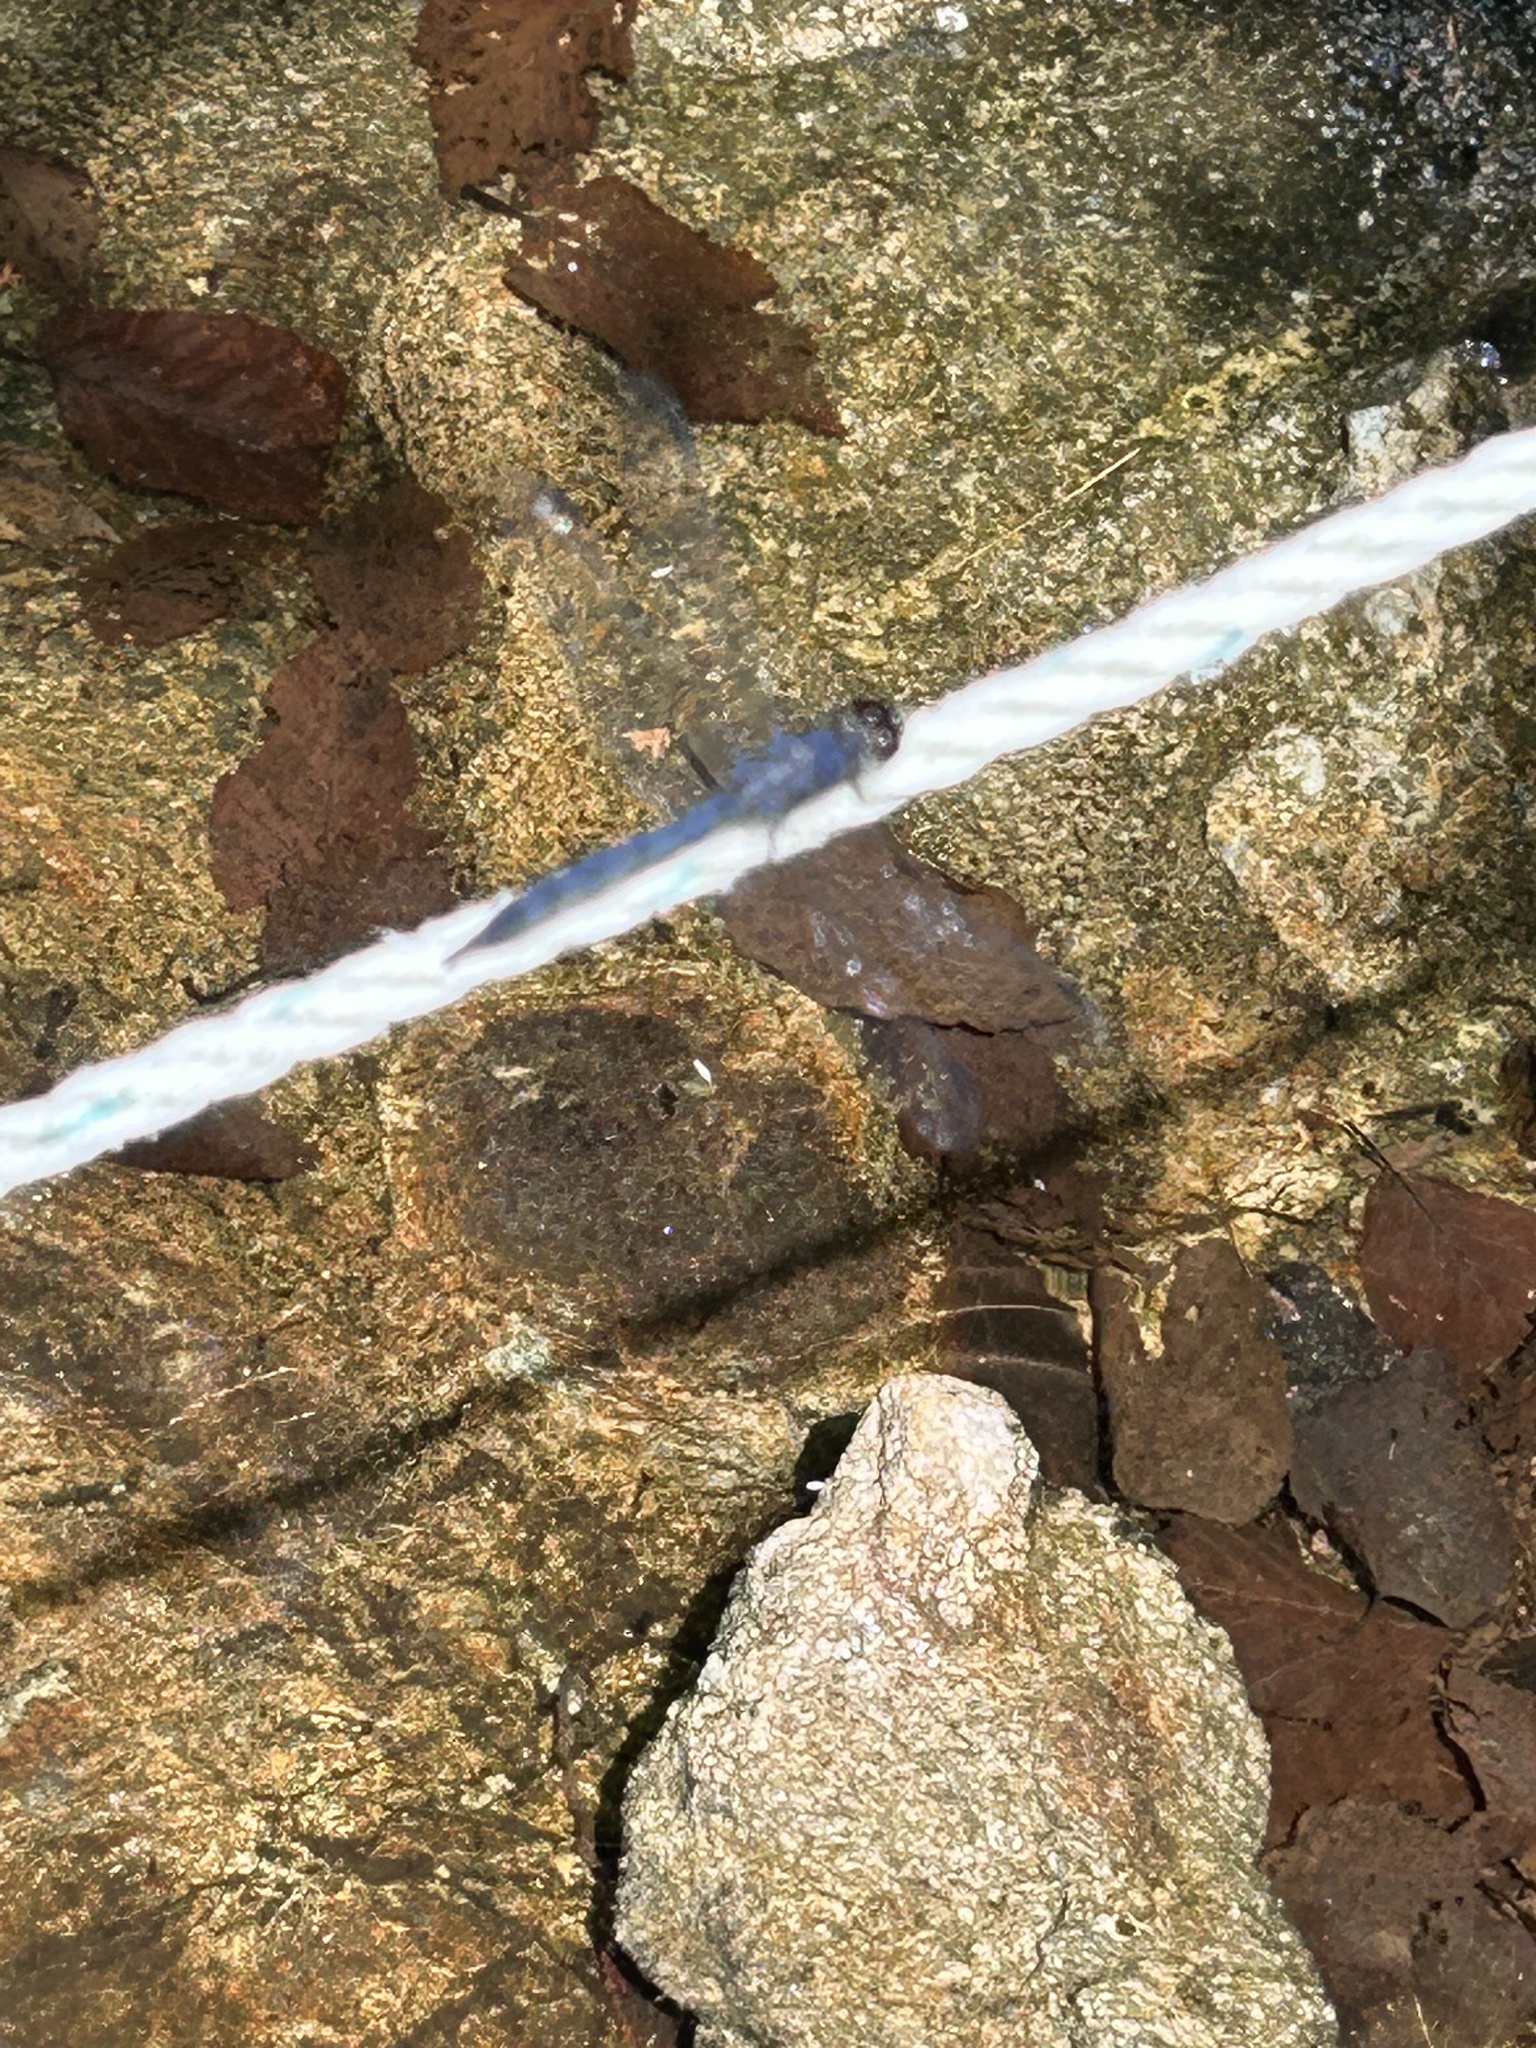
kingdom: Animalia
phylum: Arthropoda
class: Insecta
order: Odonata
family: Libellulidae
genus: Libellula
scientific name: Libellula incesta
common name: Slaty skimmer
